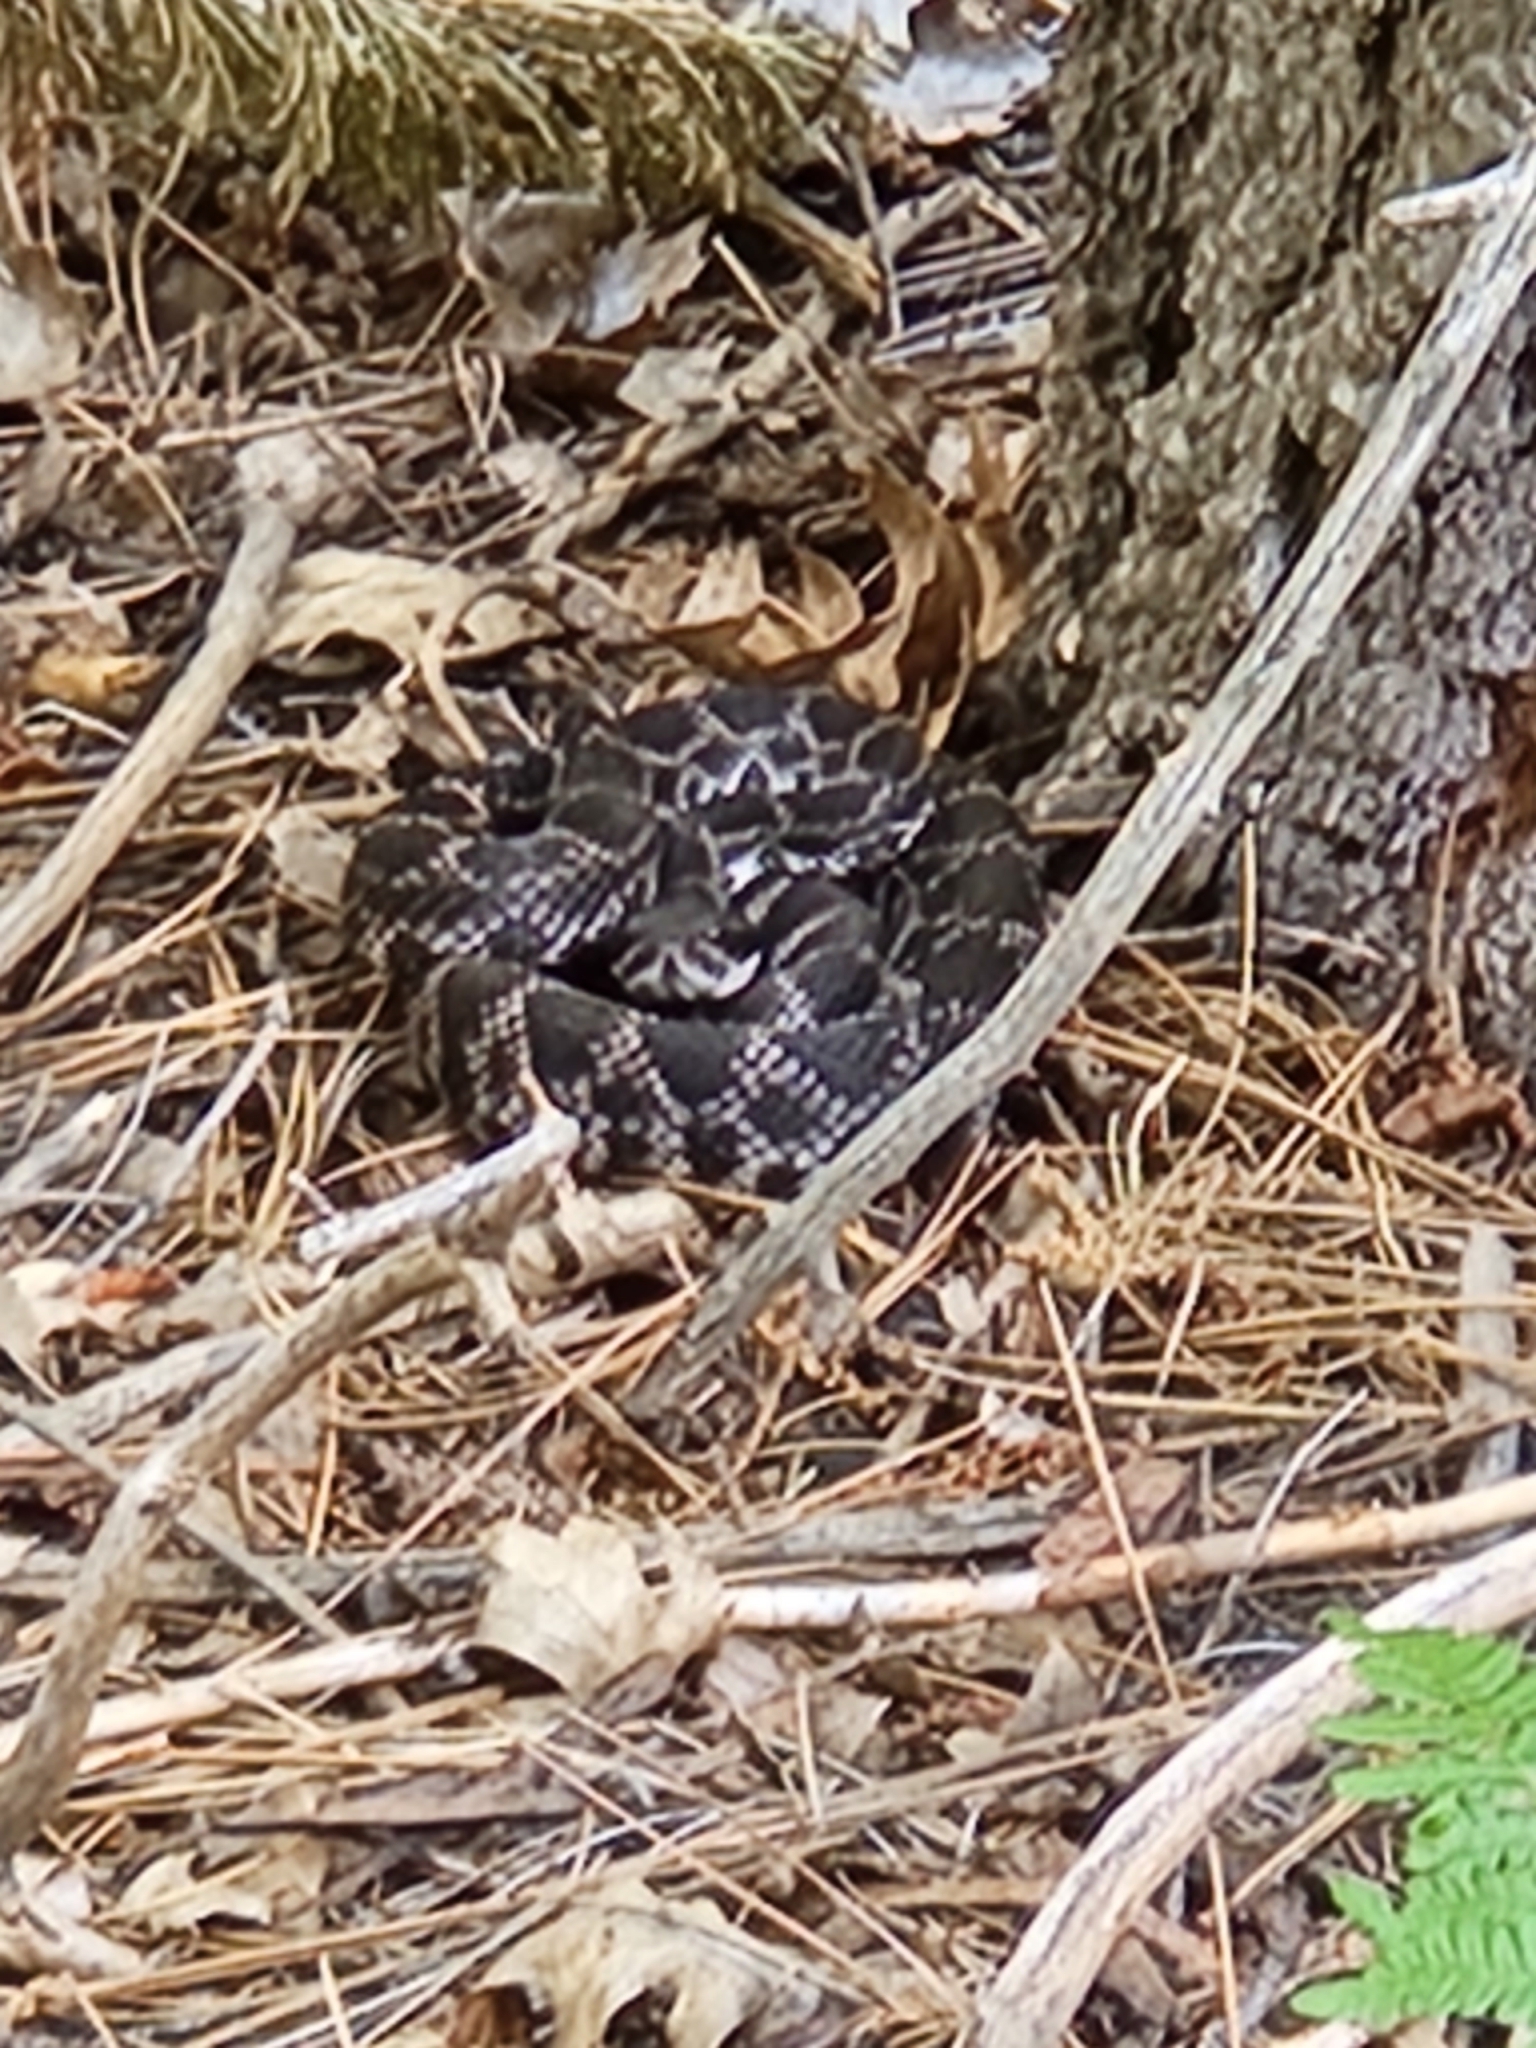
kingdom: Animalia
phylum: Chordata
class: Squamata
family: Viperidae
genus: Crotalus
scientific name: Crotalus oreganus
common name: Abyssus
